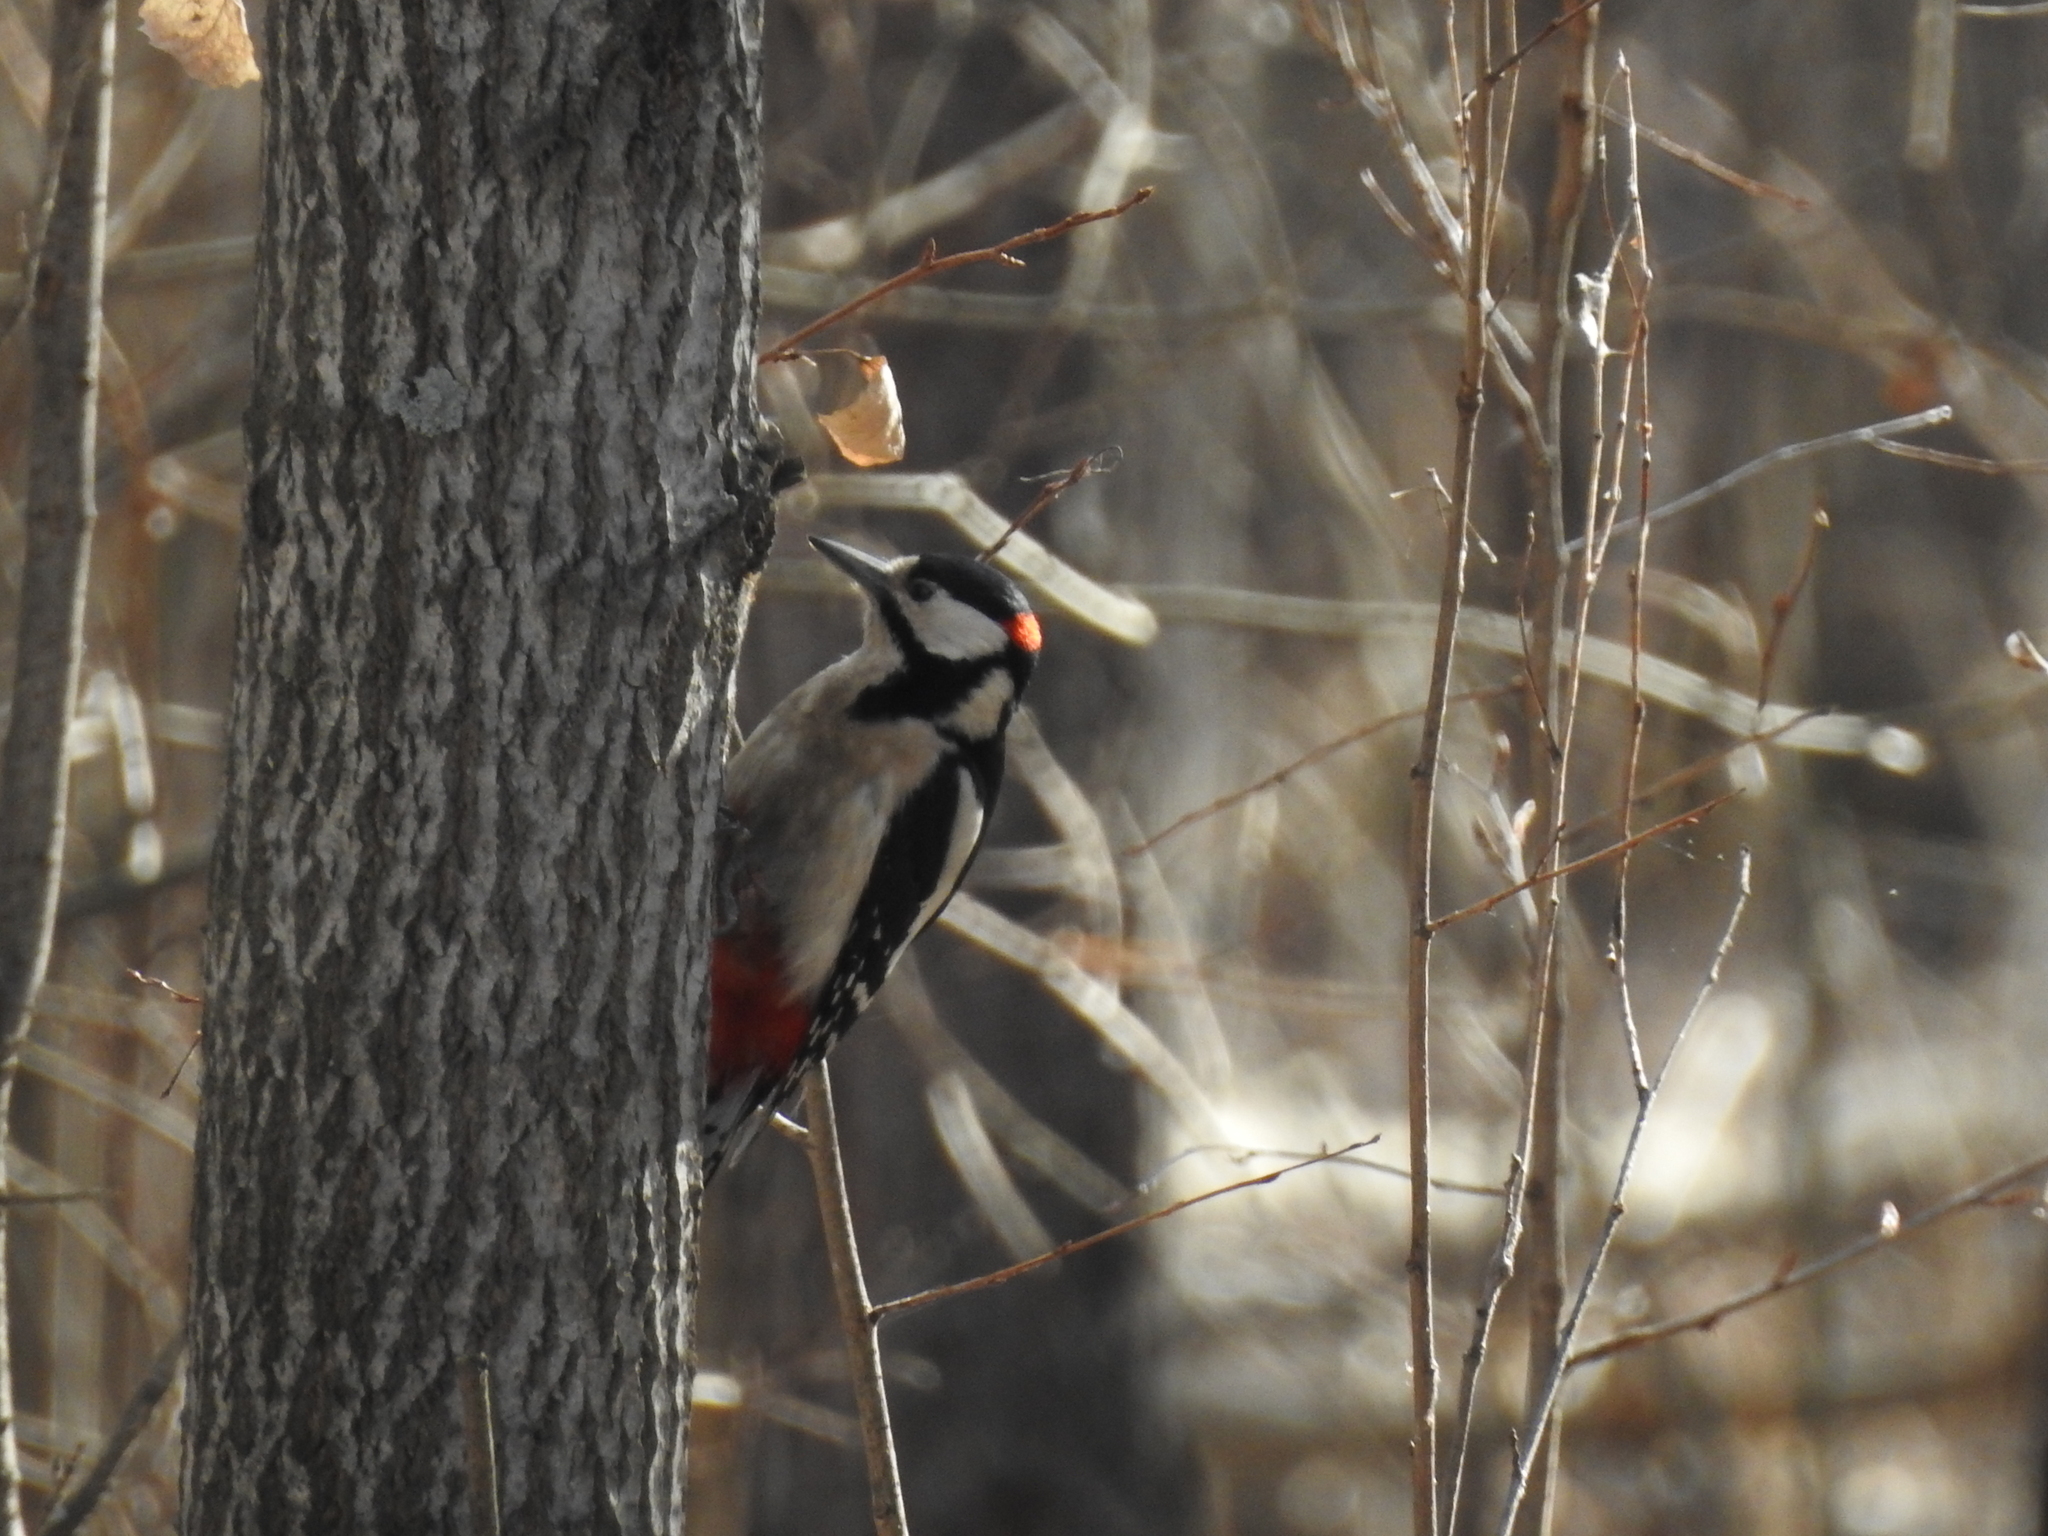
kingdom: Animalia
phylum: Chordata
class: Aves
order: Piciformes
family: Picidae
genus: Dendrocopos
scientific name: Dendrocopos major
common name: Great spotted woodpecker
